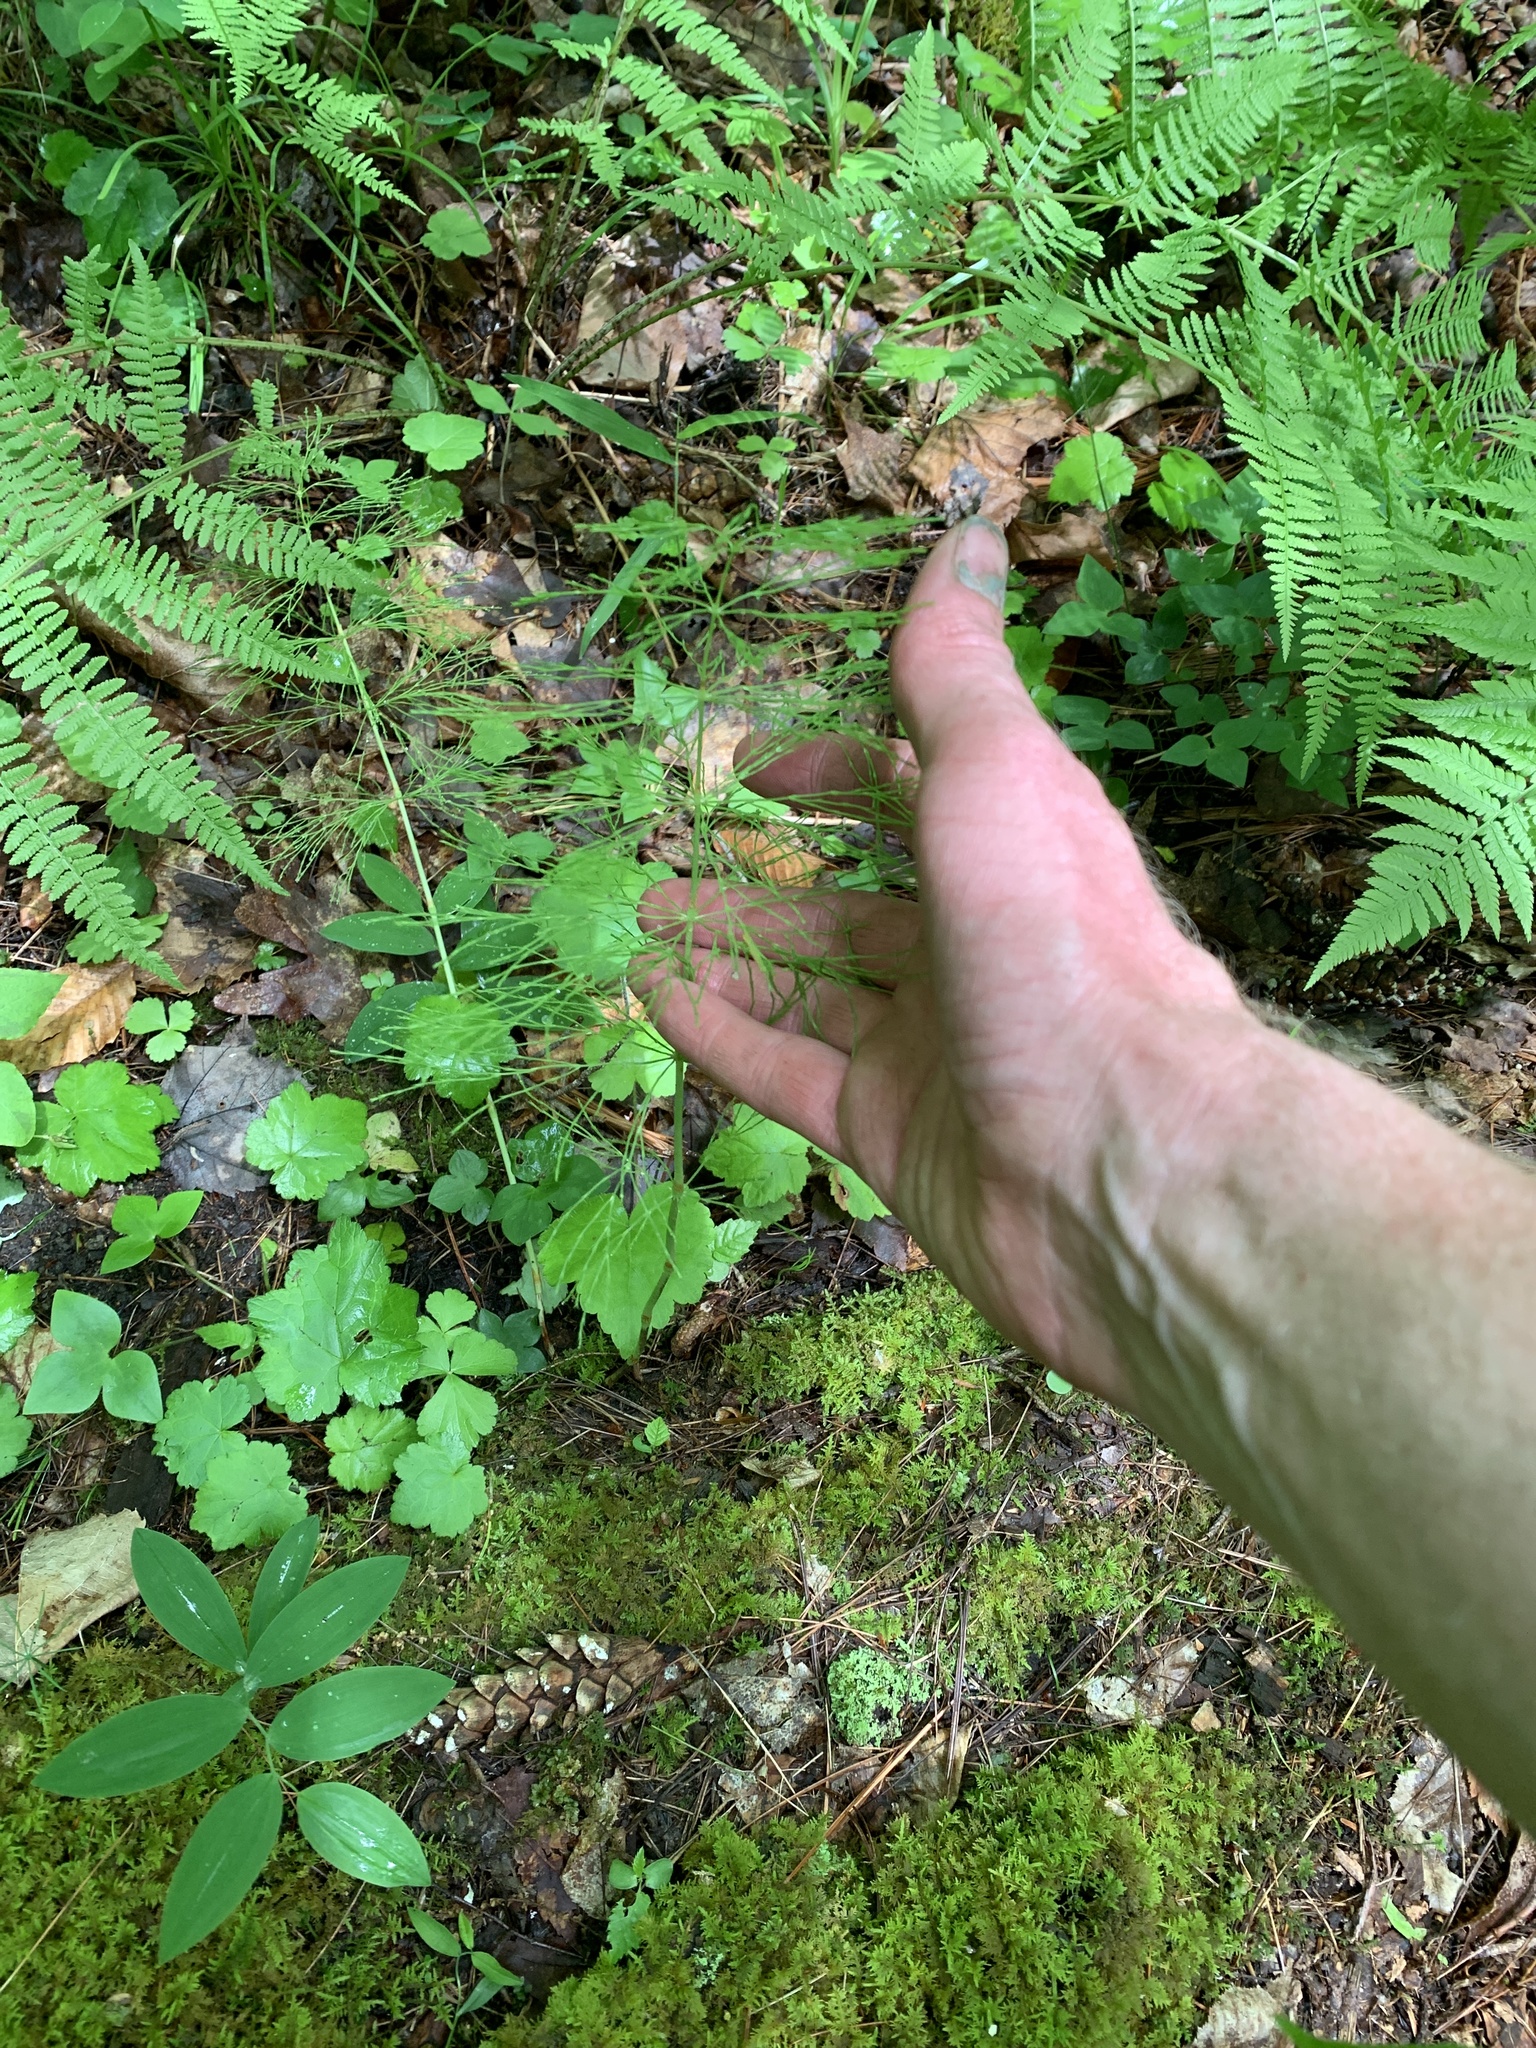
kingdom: Plantae
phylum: Tracheophyta
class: Polypodiopsida
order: Equisetales
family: Equisetaceae
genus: Equisetum
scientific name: Equisetum sylvaticum
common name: Wood horsetail
